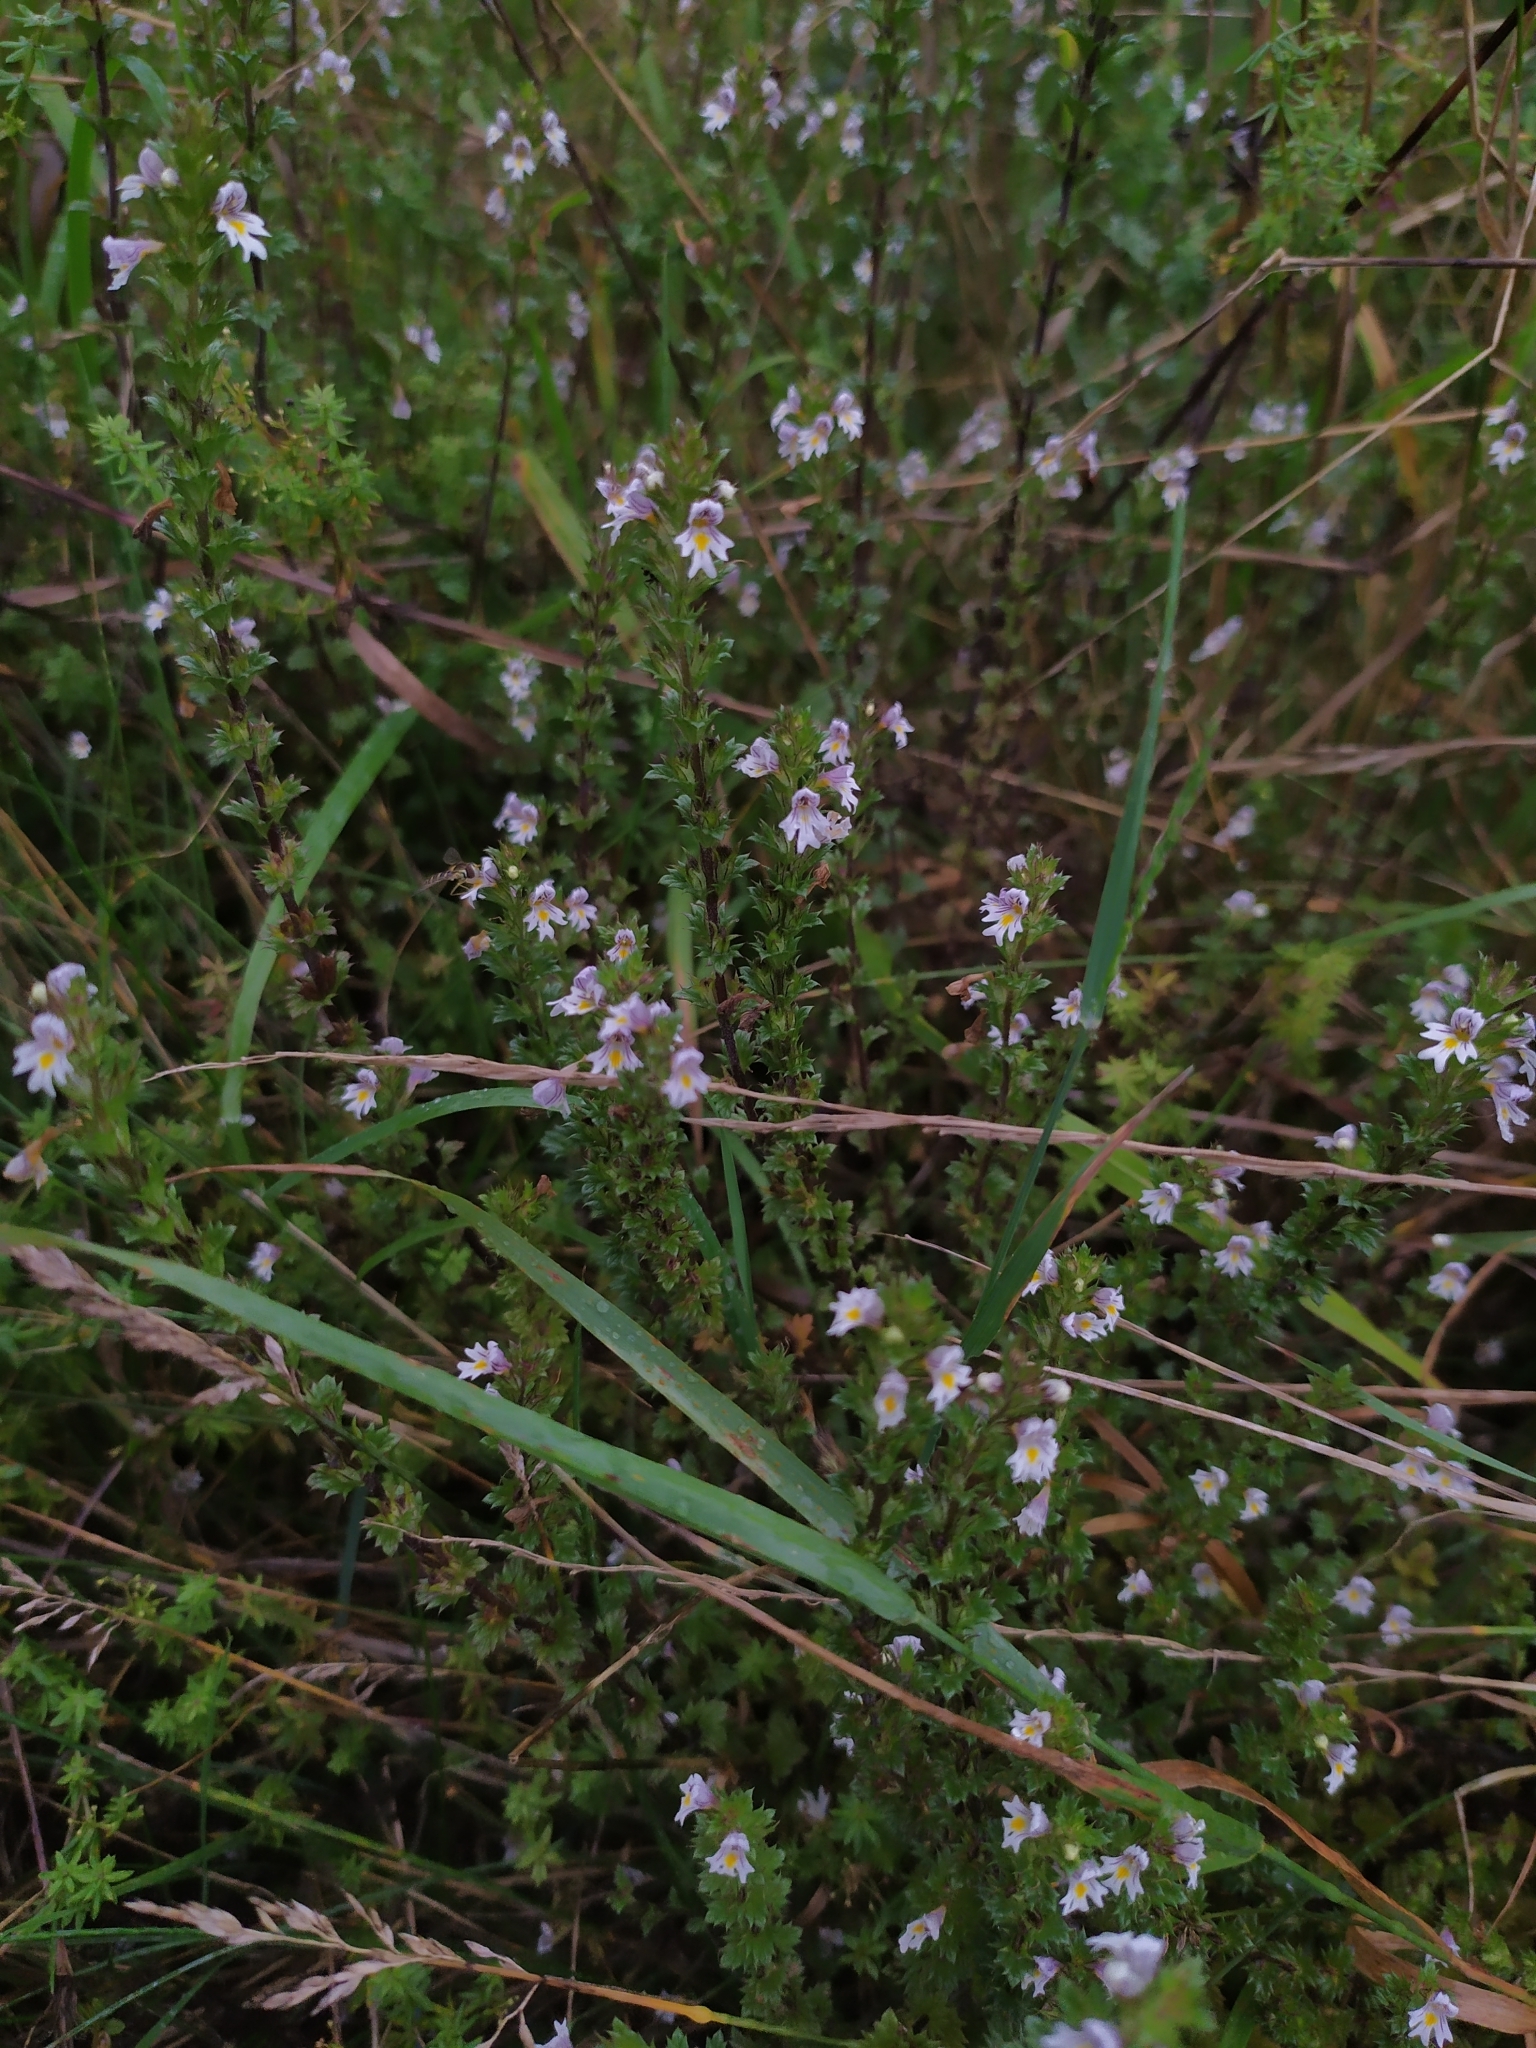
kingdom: Plantae
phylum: Tracheophyta
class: Magnoliopsida
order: Lamiales
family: Orobanchaceae
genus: Euphrasia
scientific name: Euphrasia stricta
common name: Drug eyebright
